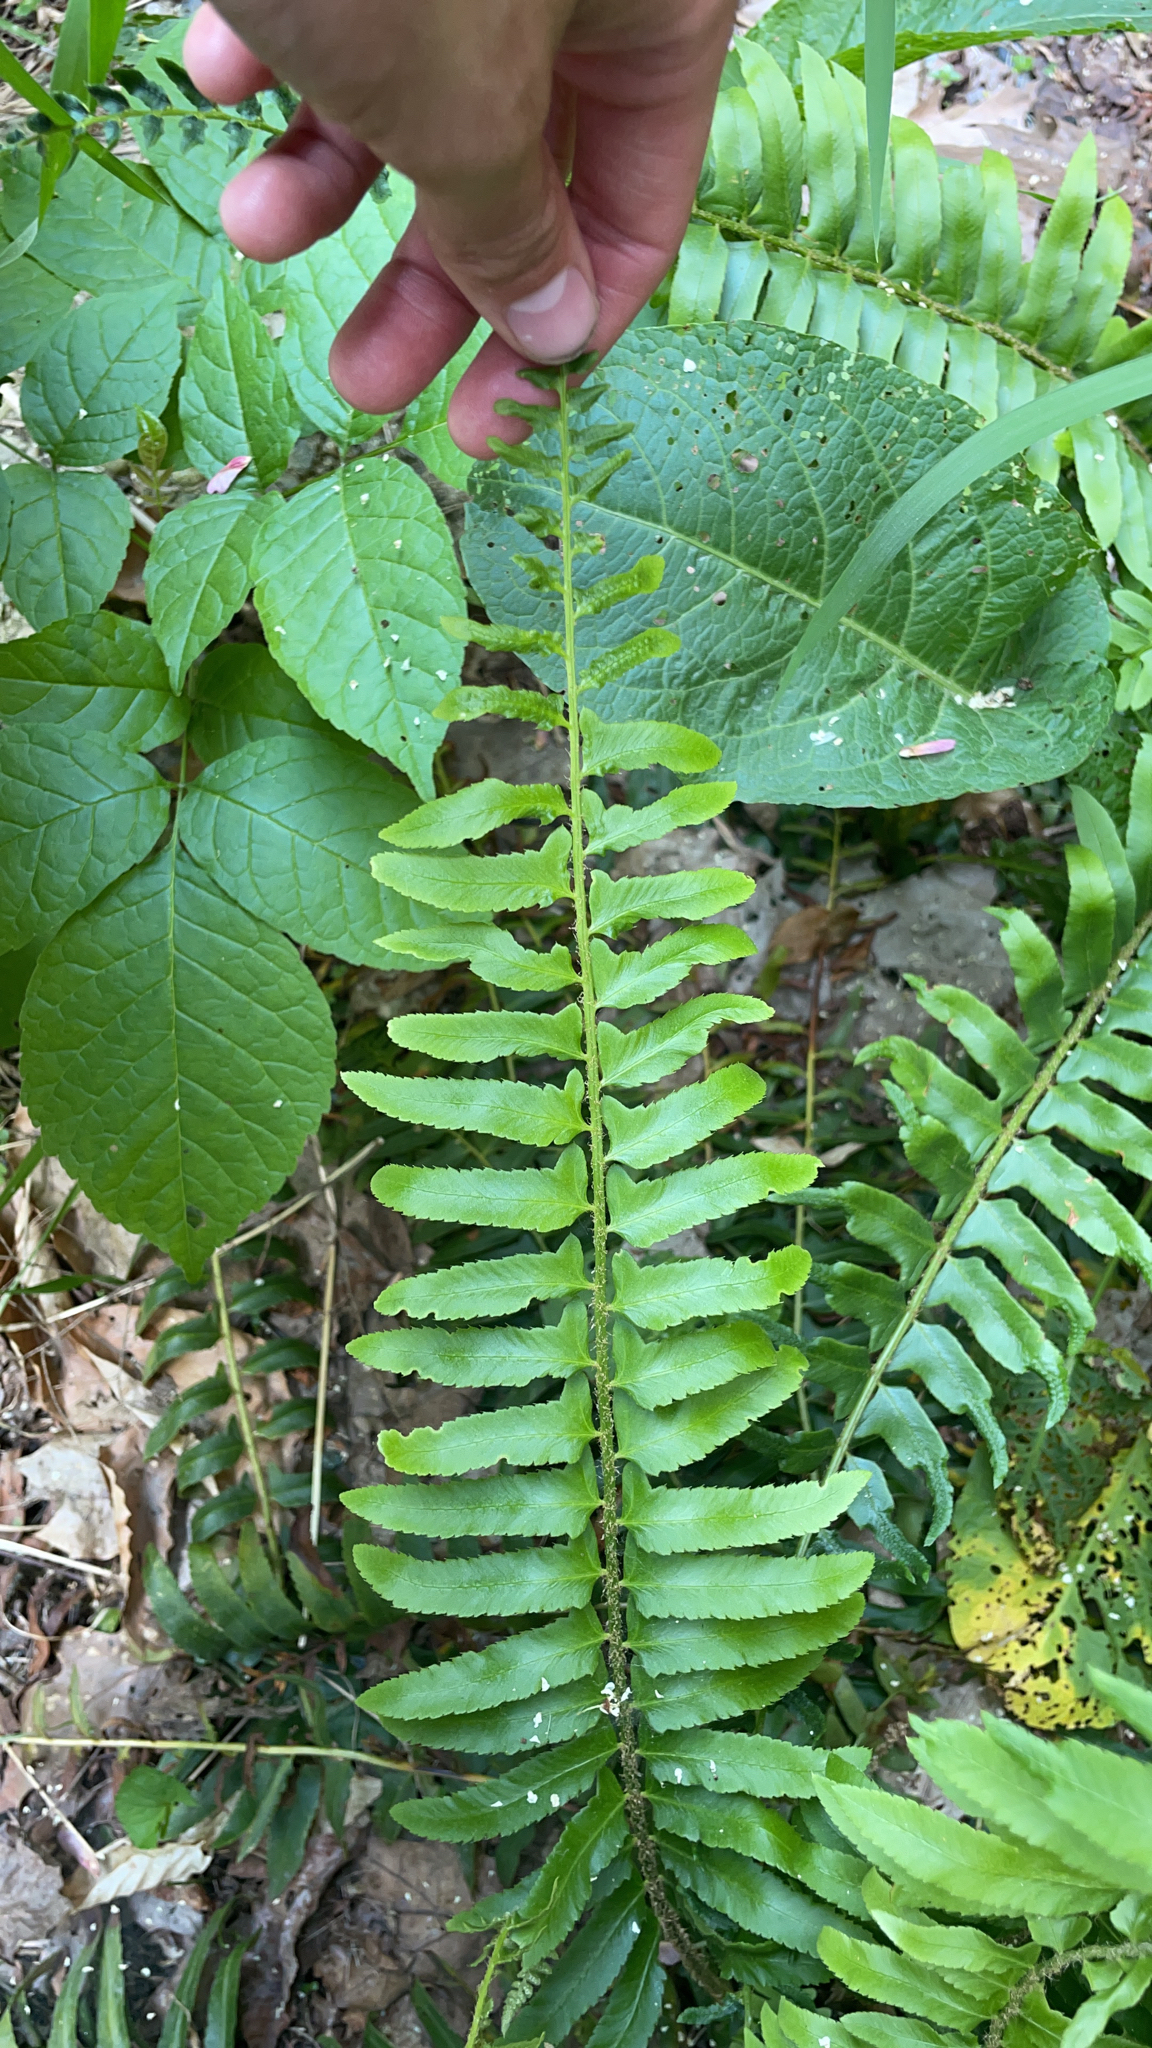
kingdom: Plantae
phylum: Tracheophyta
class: Polypodiopsida
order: Polypodiales
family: Dryopteridaceae
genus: Polystichum
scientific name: Polystichum acrostichoides
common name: Christmas fern
